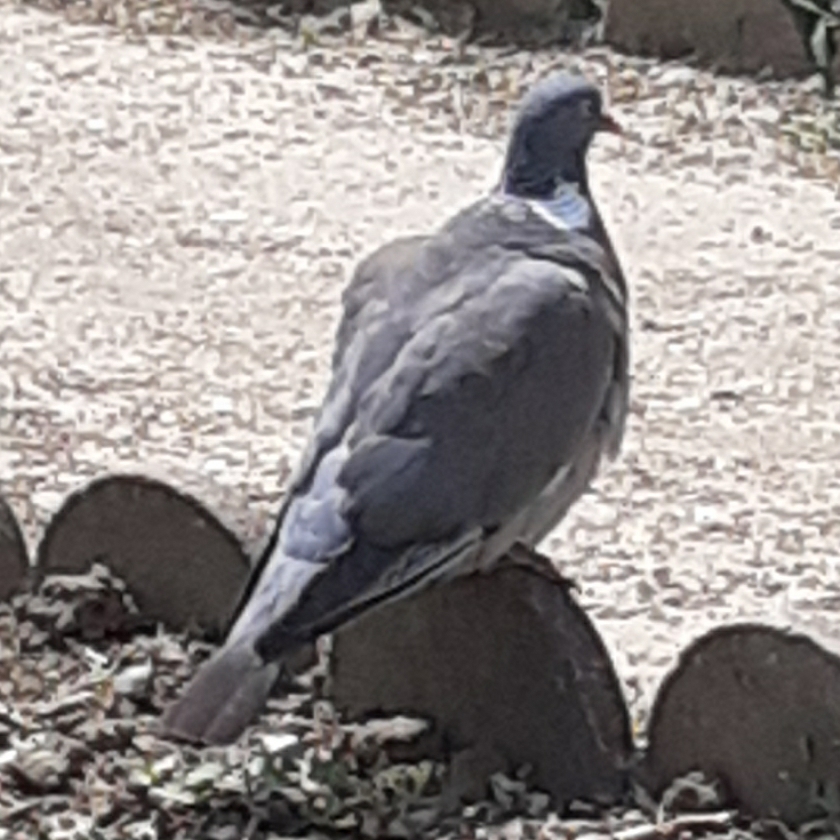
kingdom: Animalia
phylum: Chordata
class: Aves
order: Columbiformes
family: Columbidae
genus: Columba
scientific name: Columba palumbus
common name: Common wood pigeon
